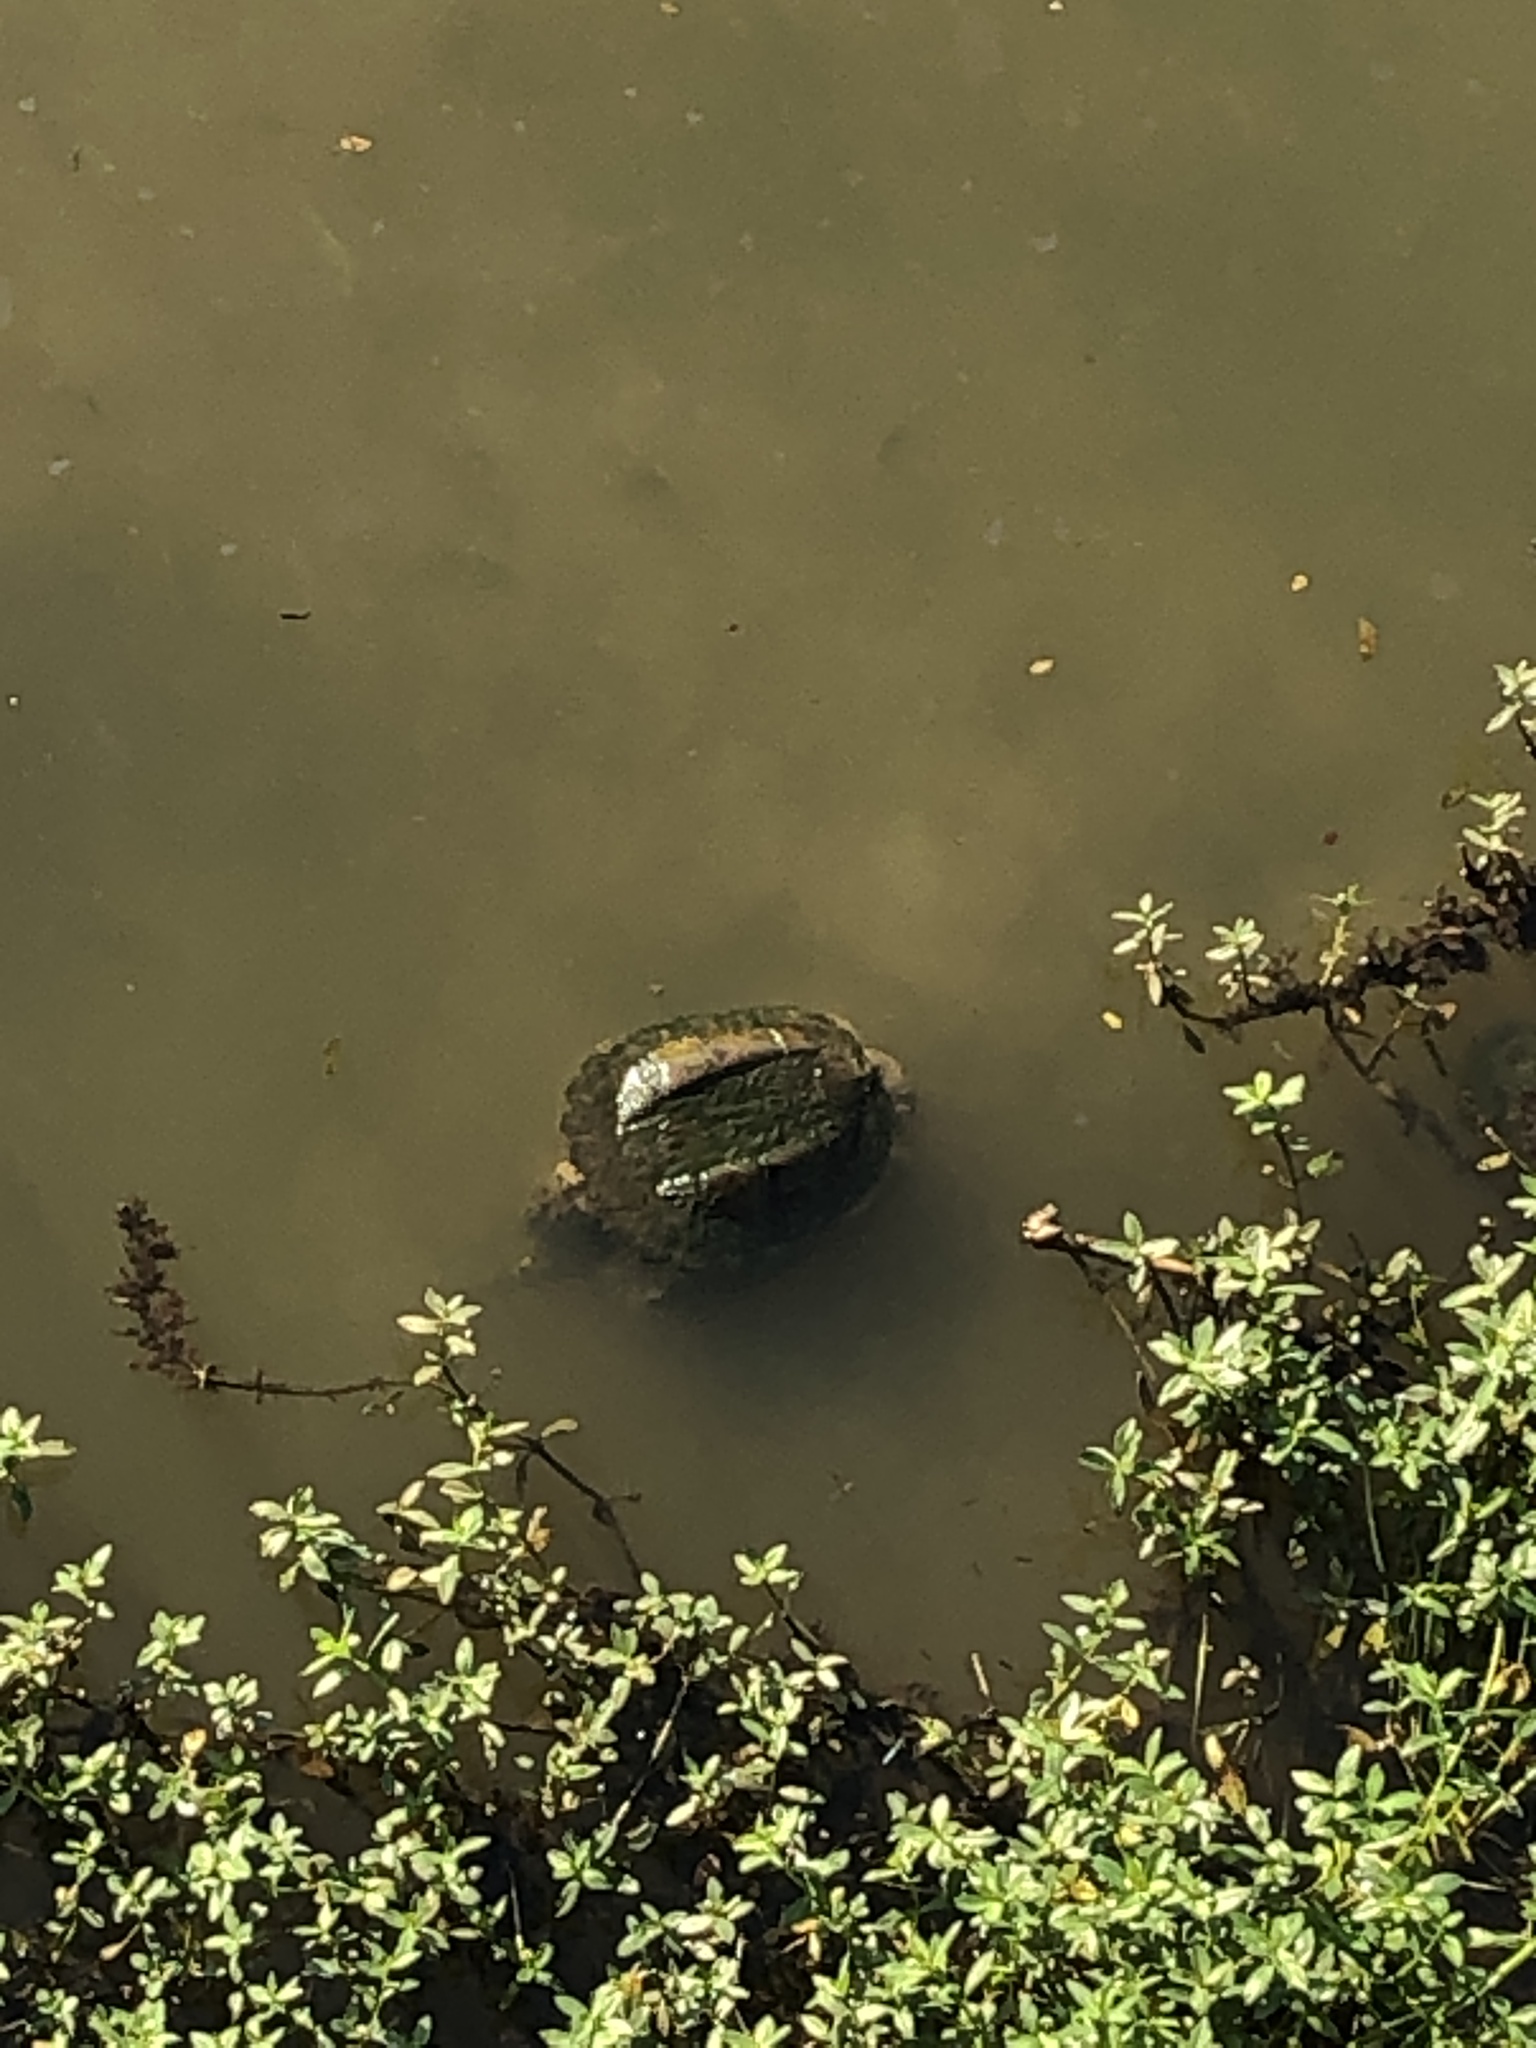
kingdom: Animalia
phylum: Chordata
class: Testudines
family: Chelydridae
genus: Chelydra
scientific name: Chelydra serpentina
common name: Common snapping turtle
